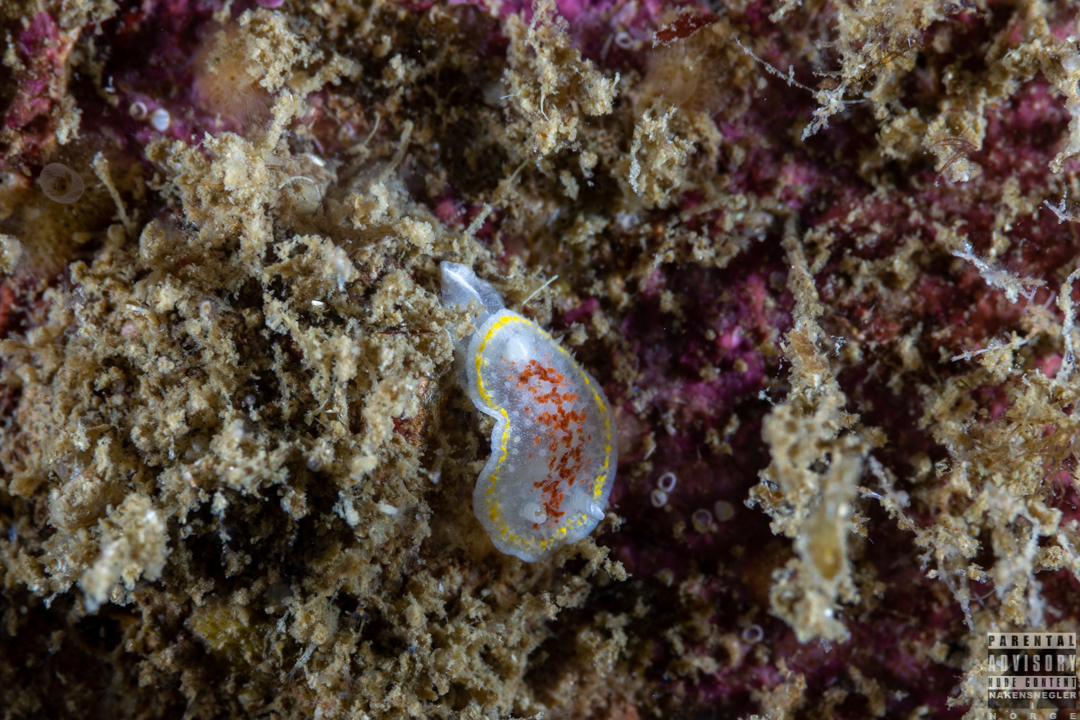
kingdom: Animalia
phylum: Mollusca
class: Gastropoda
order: Nudibranchia
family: Calycidorididae
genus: Diaphorodoris
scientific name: Diaphorodoris luteocincta
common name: Fried egg nudibranch
